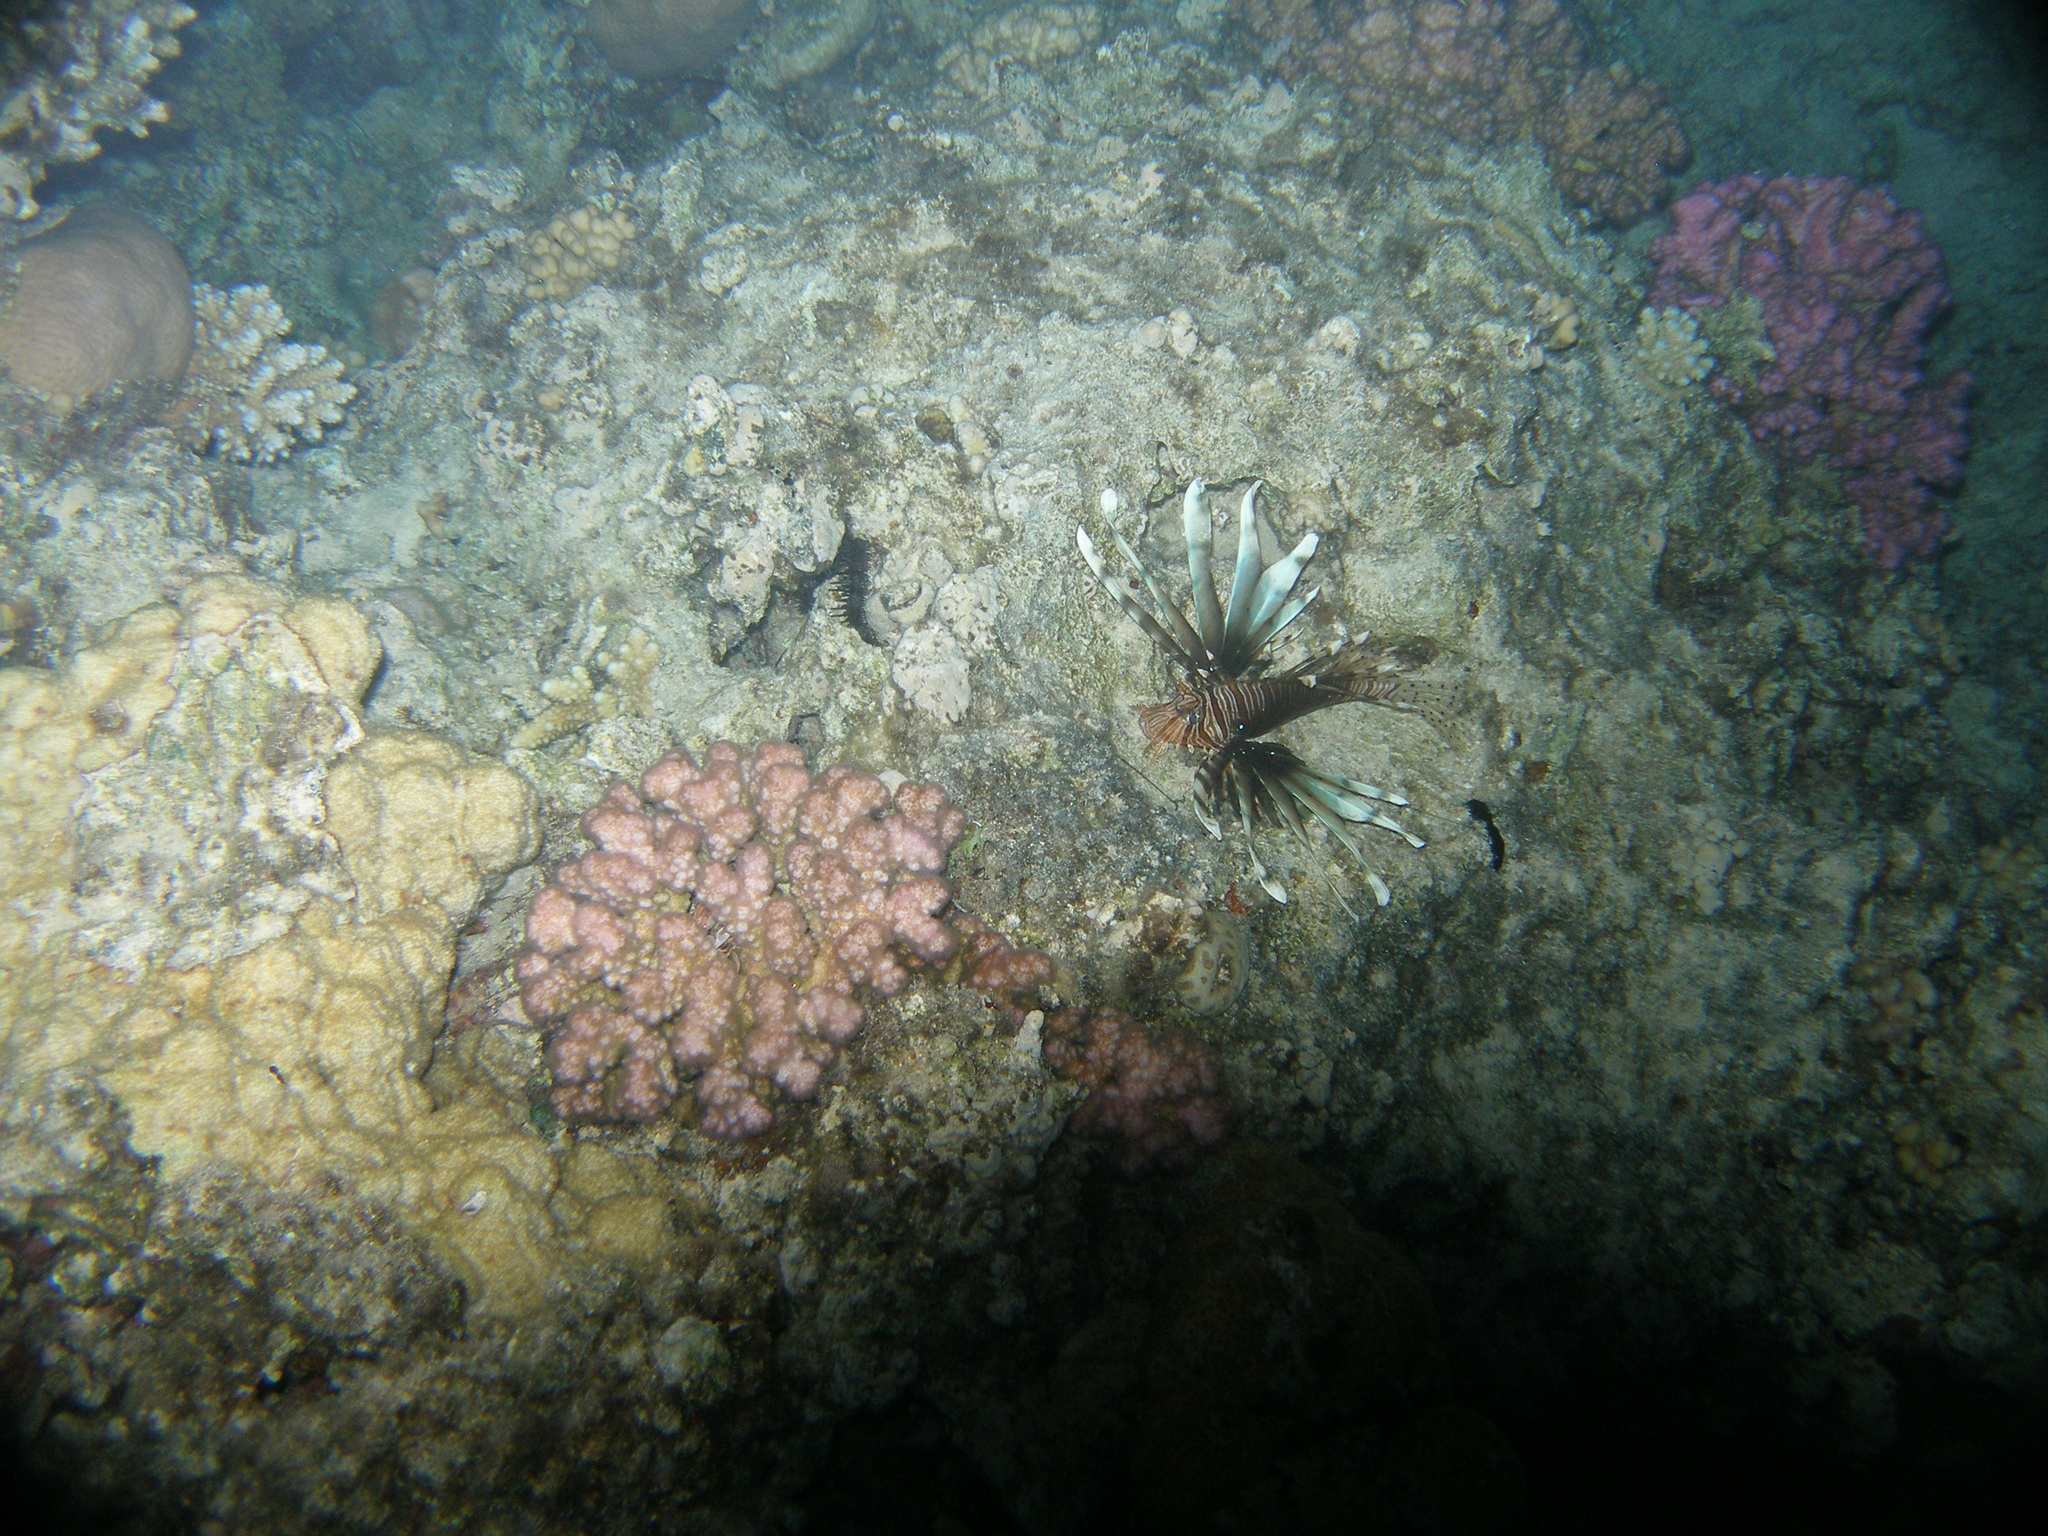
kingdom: Animalia
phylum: Chordata
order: Scorpaeniformes
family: Scorpaenidae
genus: Pterois
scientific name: Pterois miles
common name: Devil firefish
